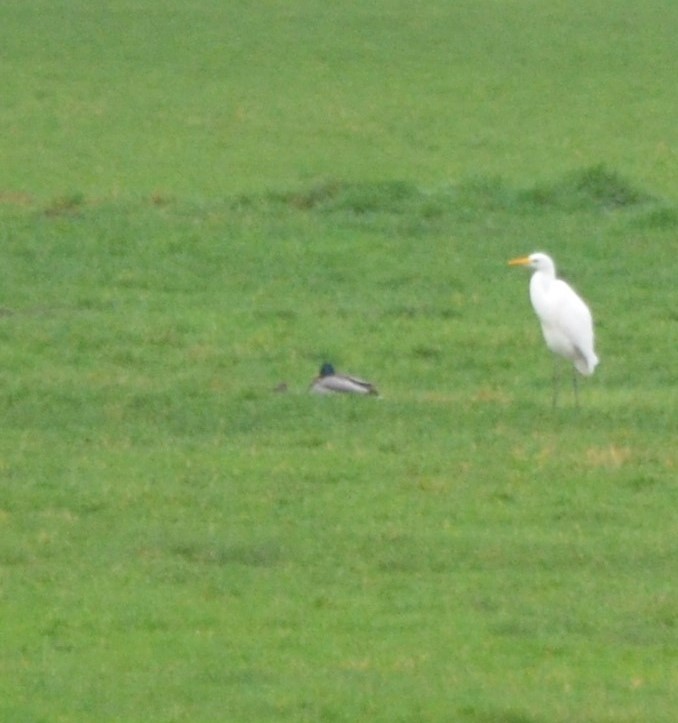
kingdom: Animalia
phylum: Chordata
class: Aves
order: Anseriformes
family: Anatidae
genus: Anas
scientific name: Anas platyrhynchos
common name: Mallard
